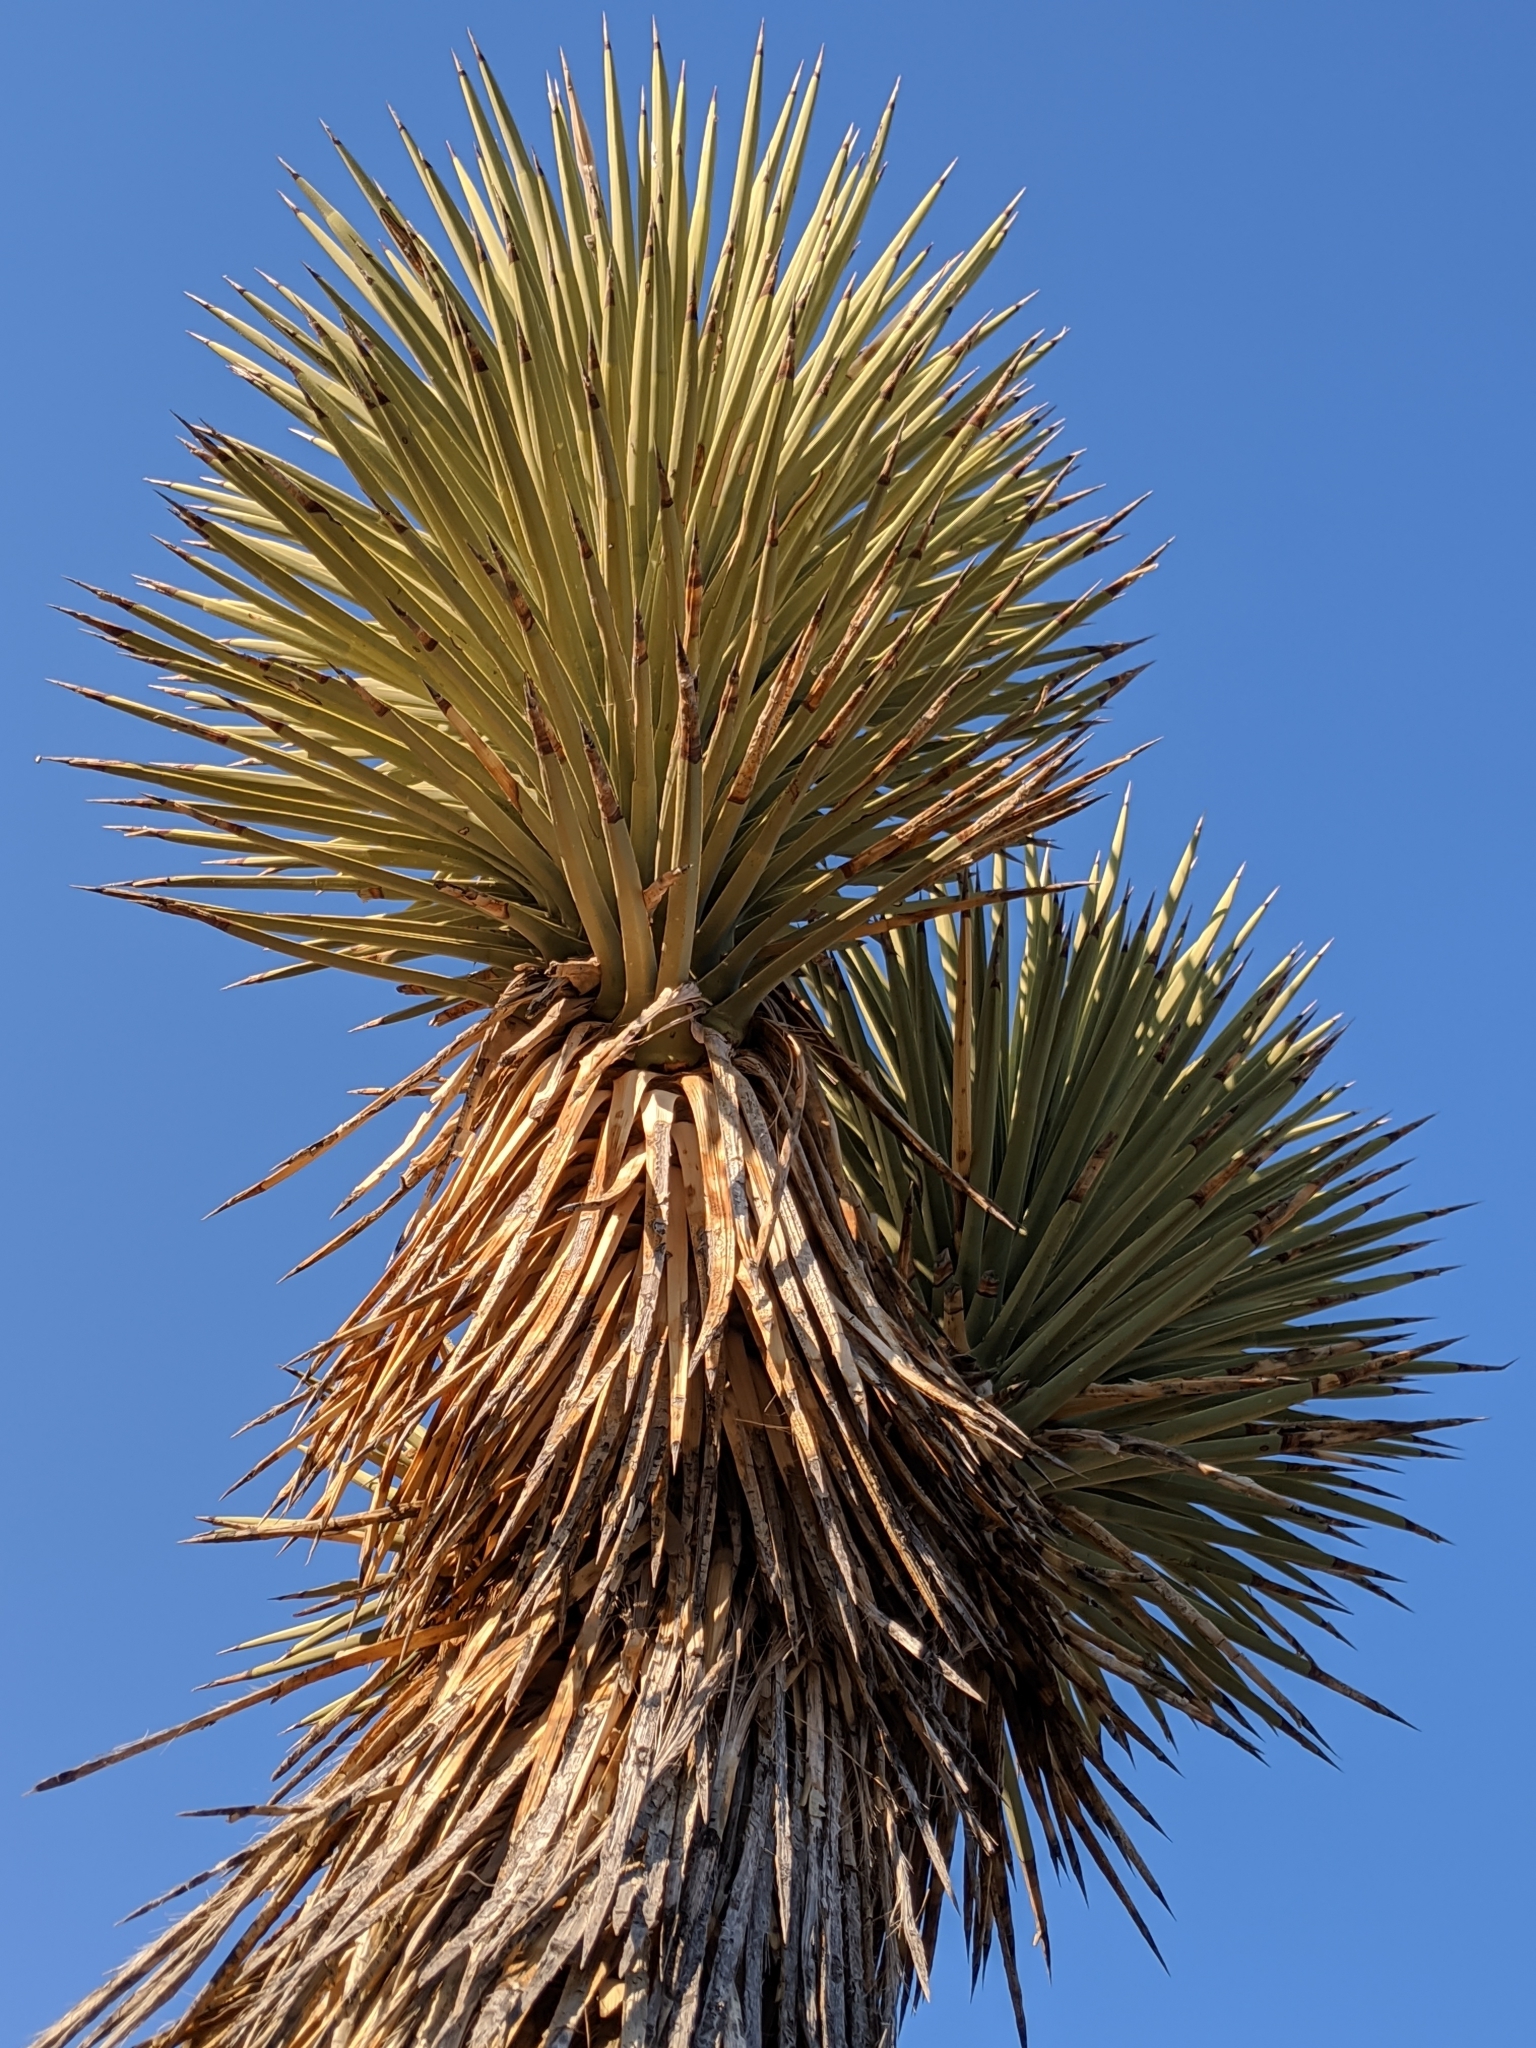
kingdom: Plantae
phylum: Tracheophyta
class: Liliopsida
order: Asparagales
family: Asparagaceae
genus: Yucca
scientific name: Yucca brevifolia
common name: Joshua tree
